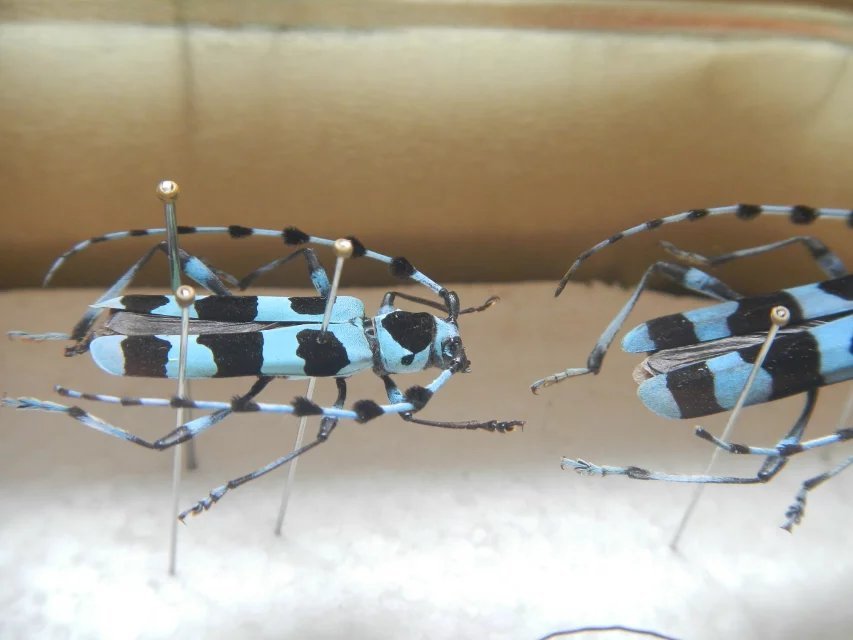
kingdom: Animalia
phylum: Arthropoda
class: Insecta
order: Coleoptera
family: Cerambycidae
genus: Rosalia
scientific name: Rosalia coelestis
